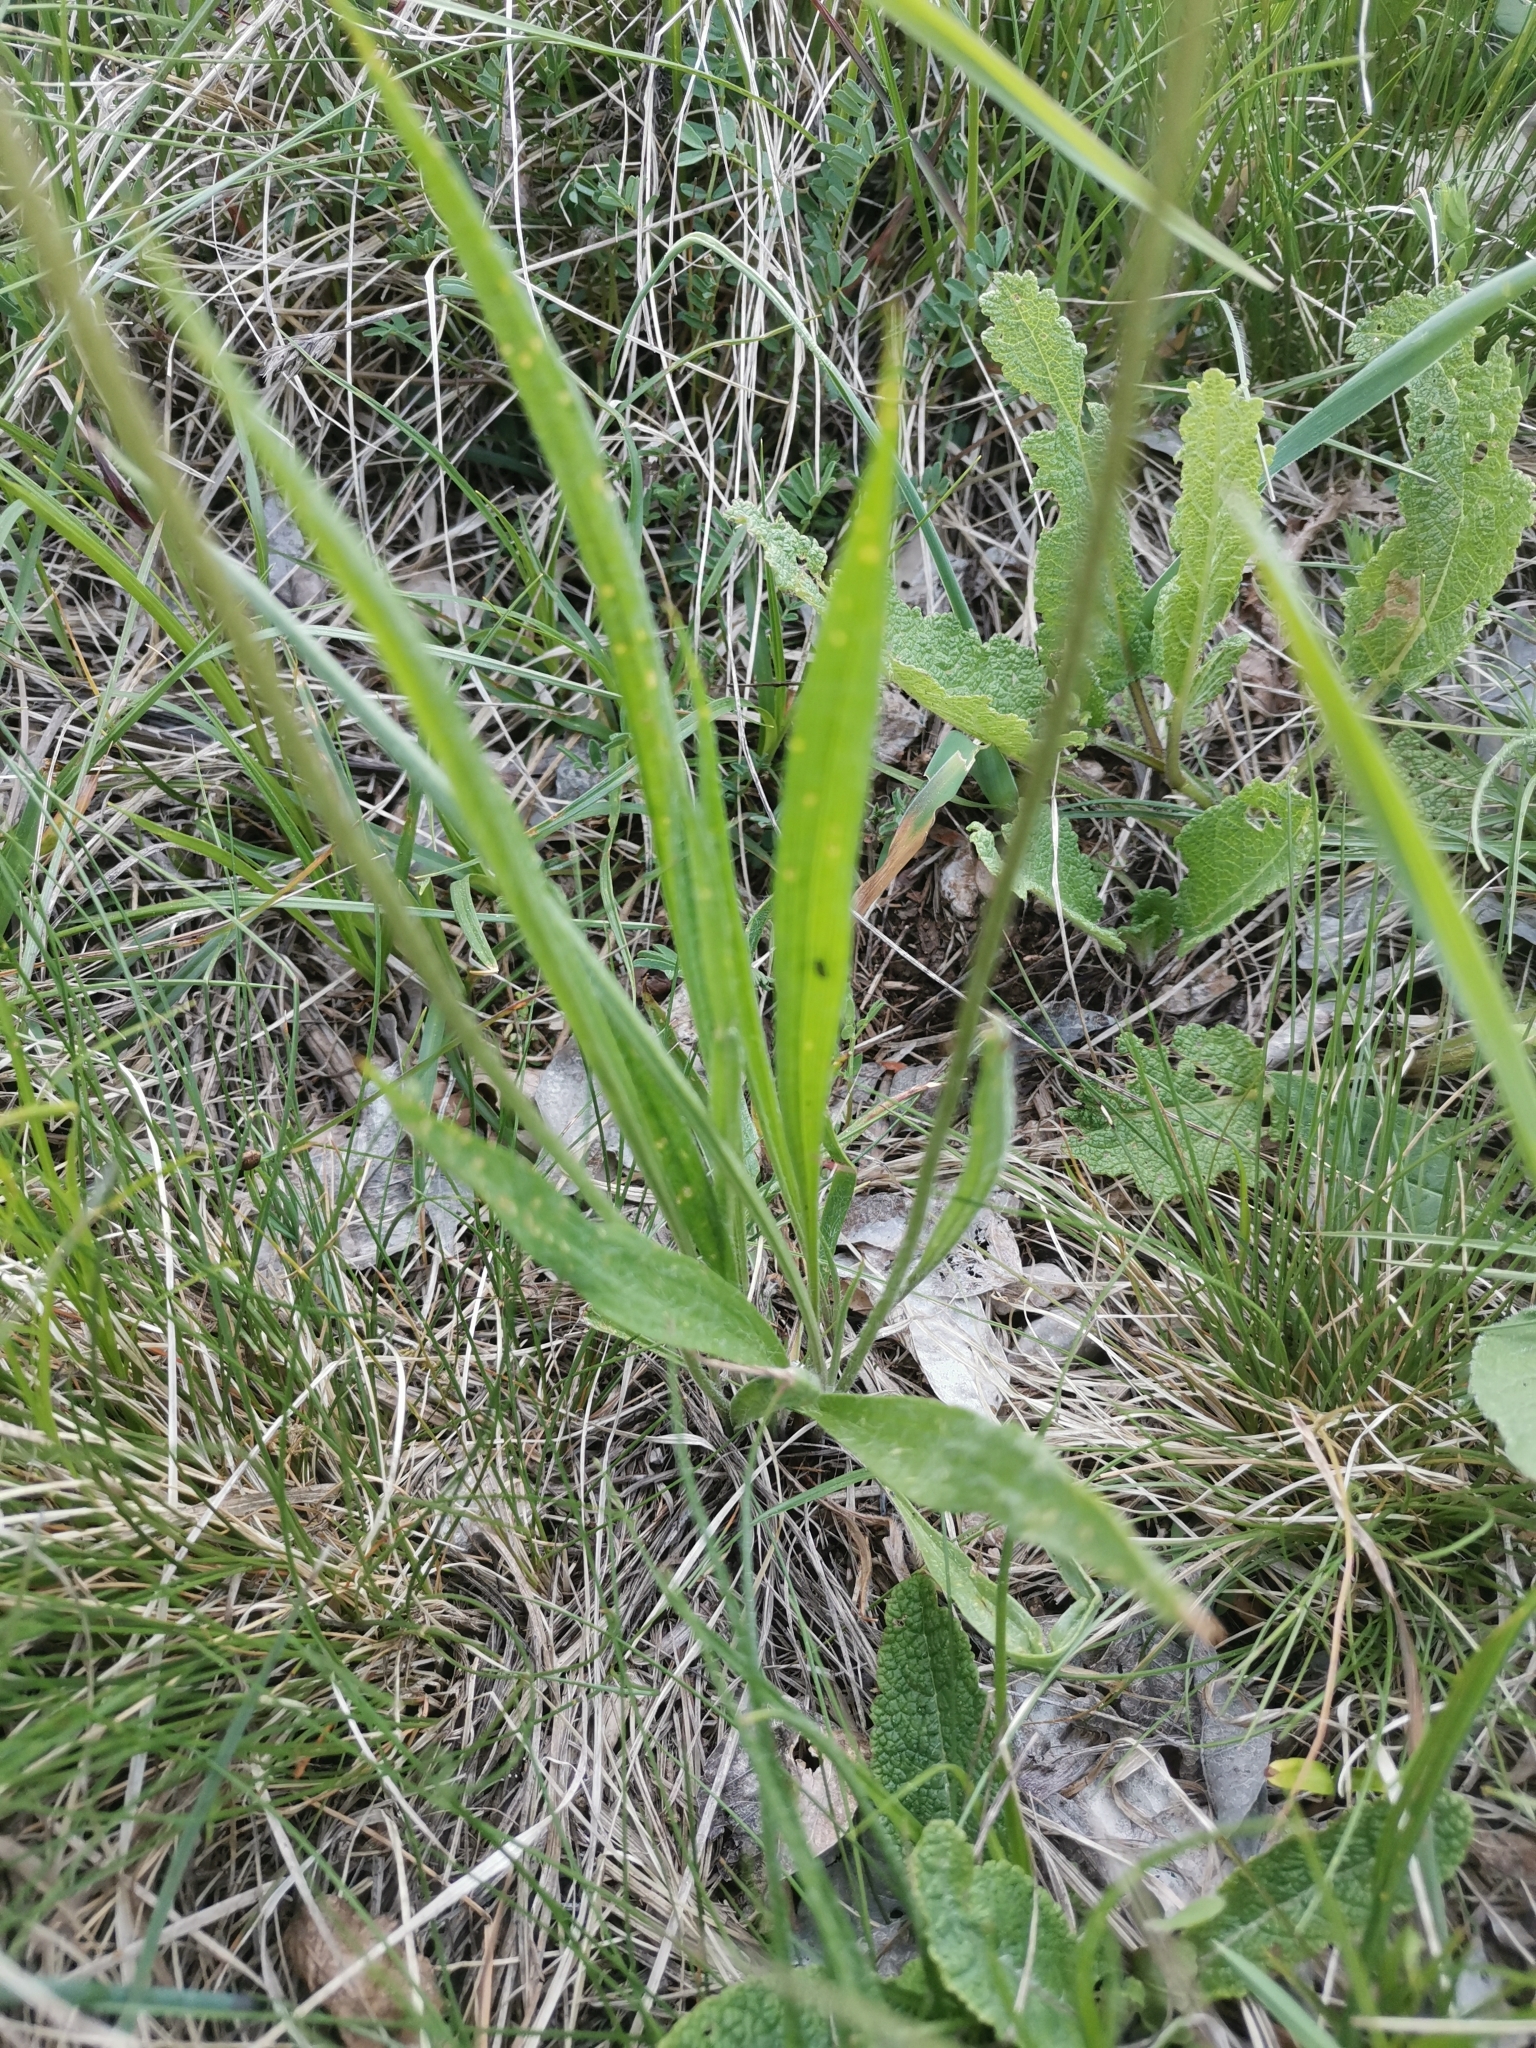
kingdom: Plantae
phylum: Tracheophyta
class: Magnoliopsida
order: Lamiales
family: Plantaginaceae
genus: Plantago
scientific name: Plantago argentea
